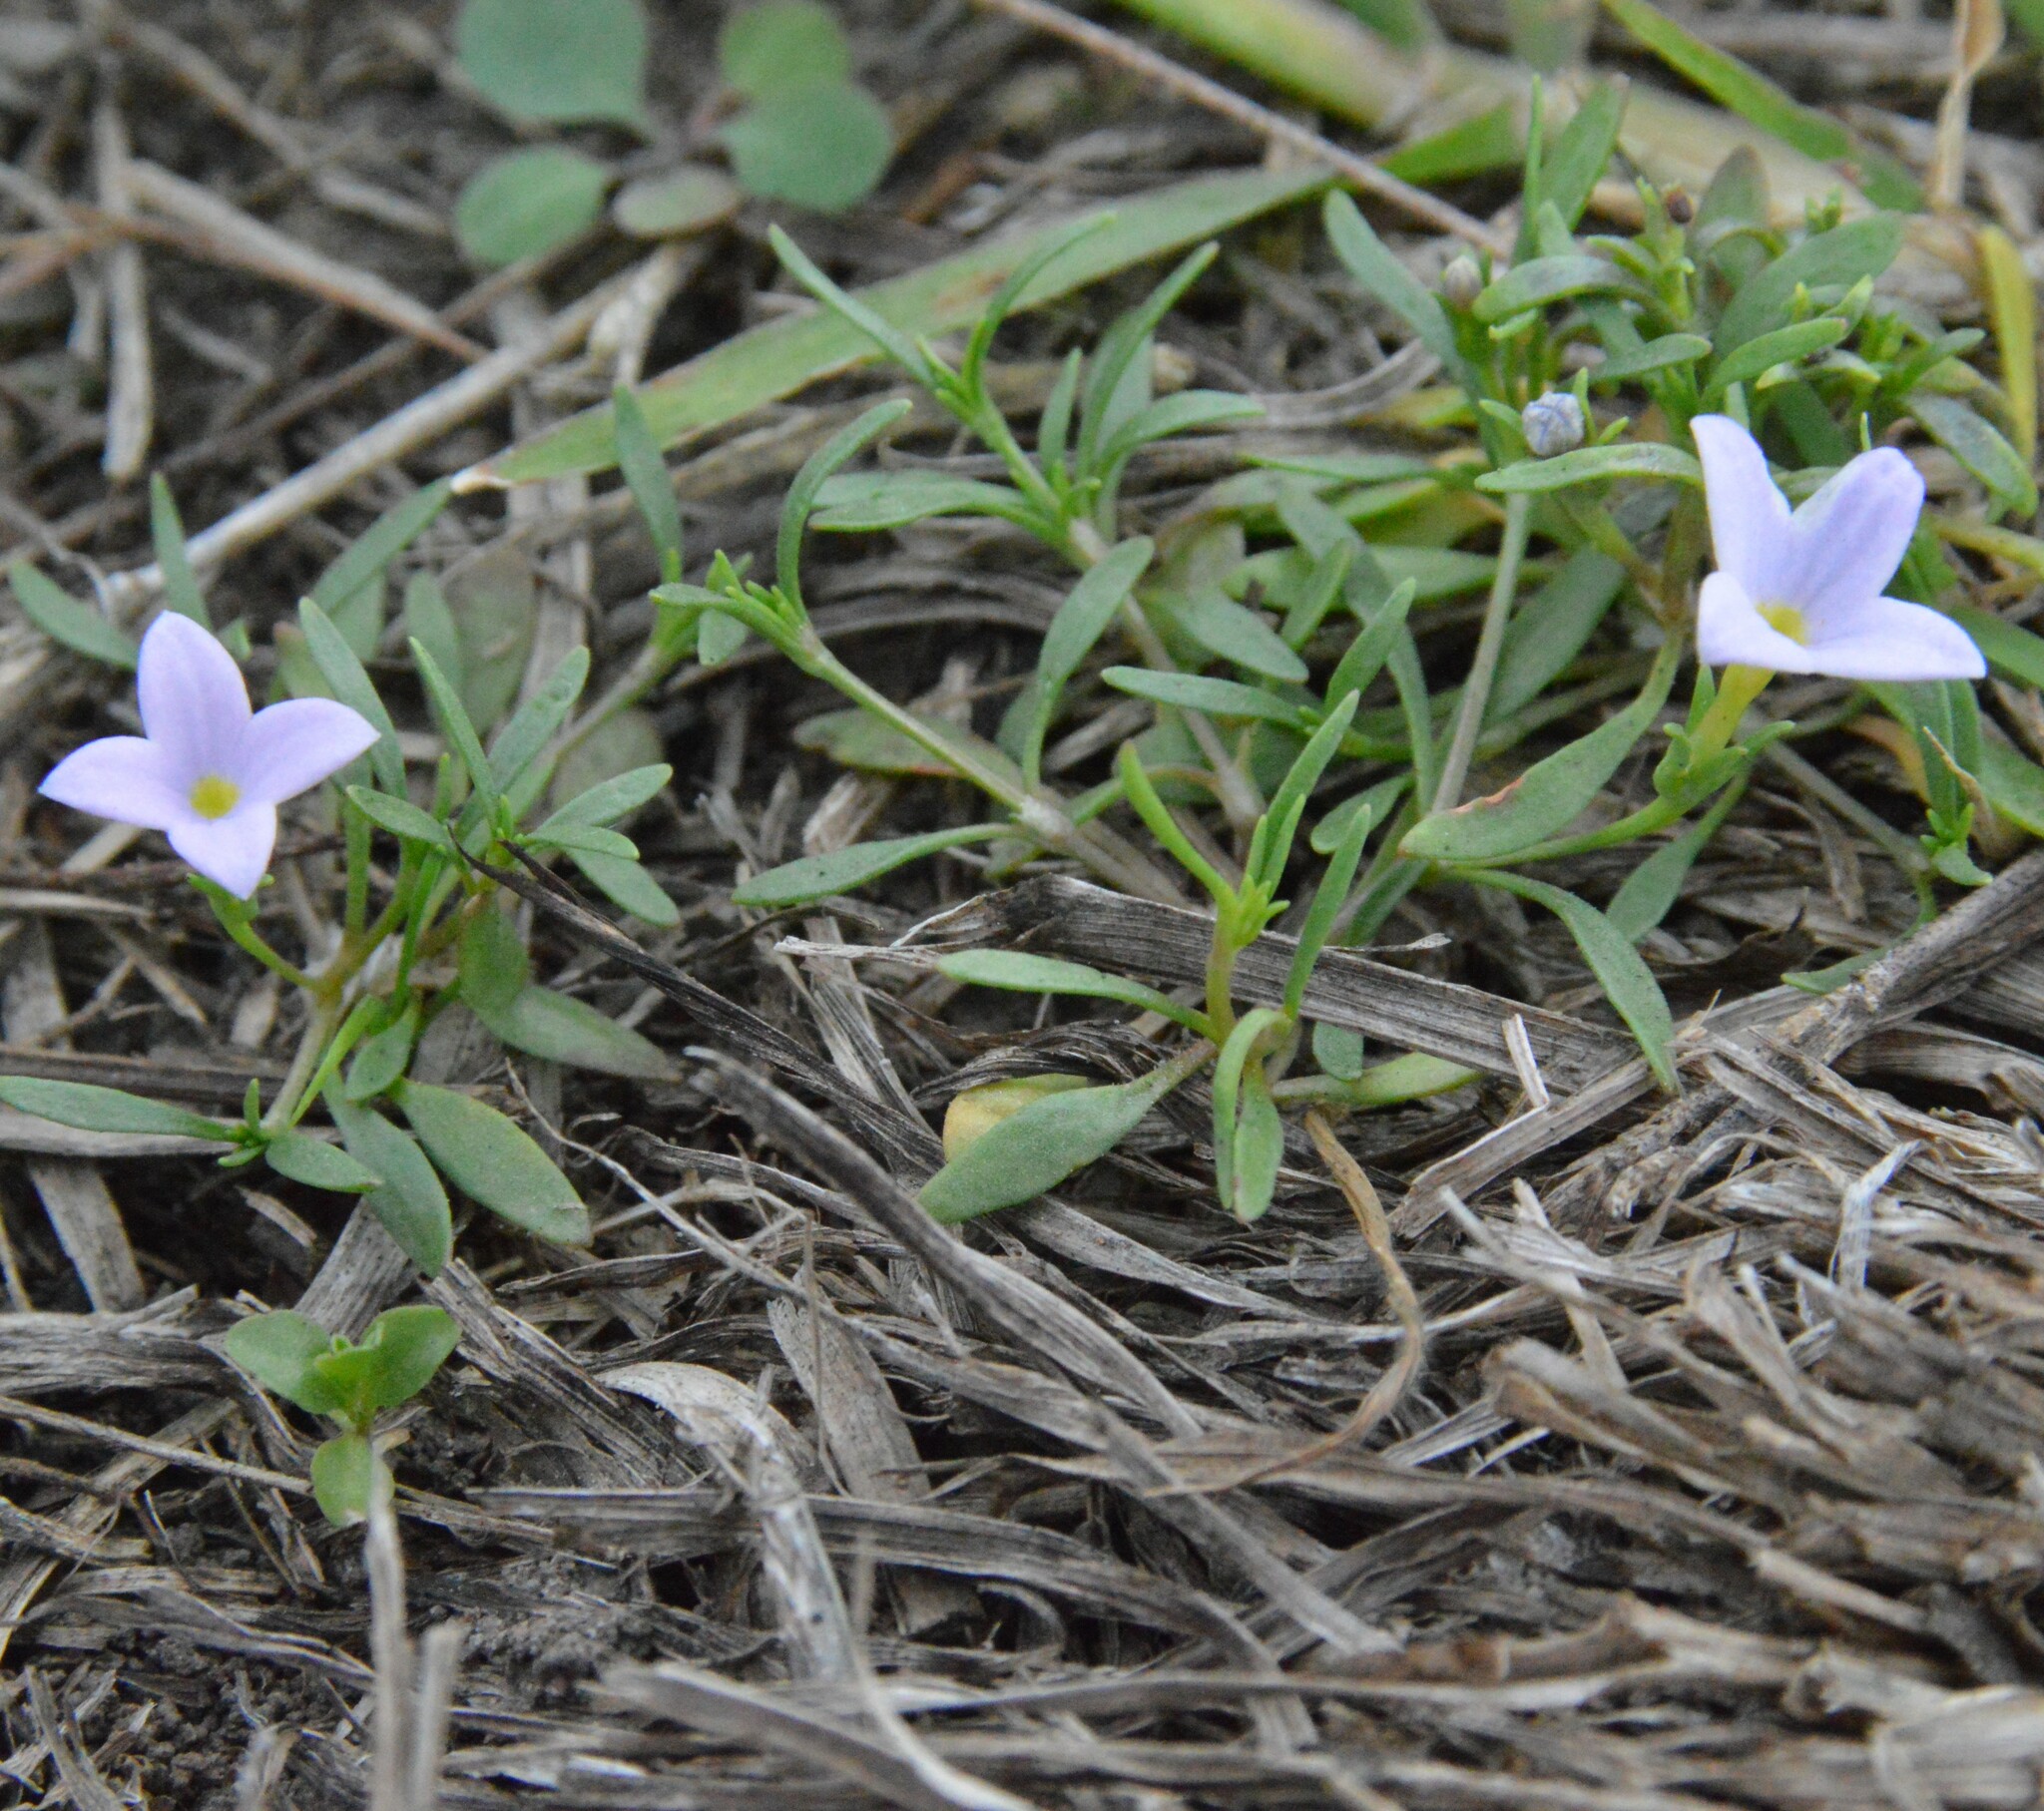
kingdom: Plantae
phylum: Tracheophyta
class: Magnoliopsida
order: Gentianales
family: Rubiaceae
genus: Houstonia
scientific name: Houstonia rosea
